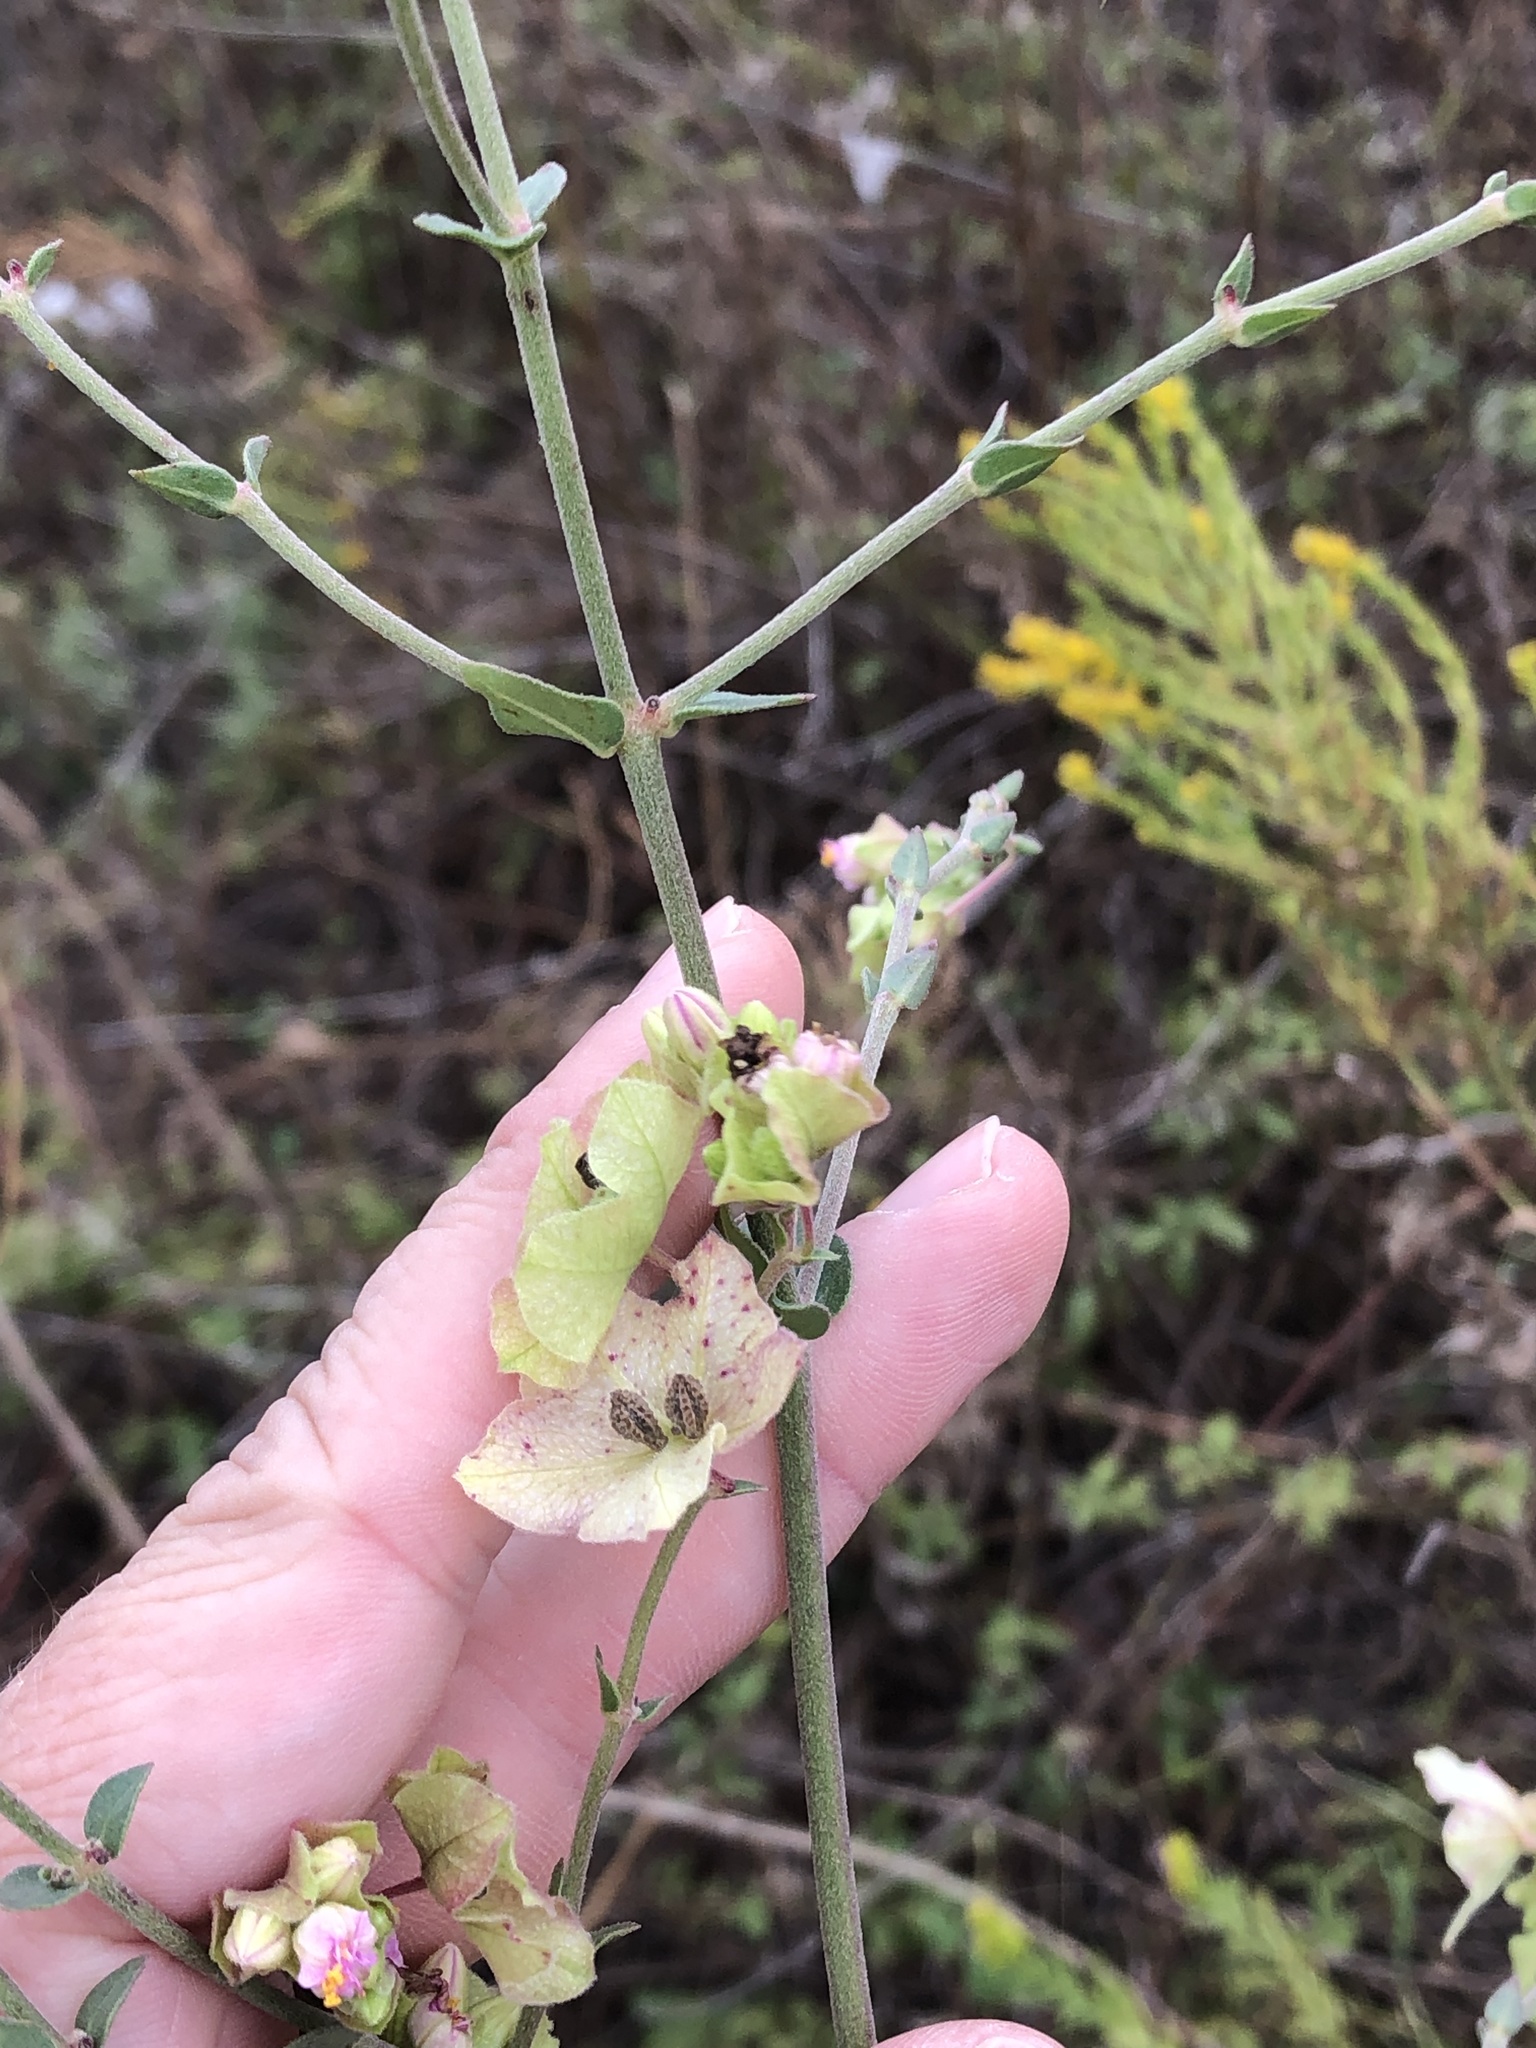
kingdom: Plantae
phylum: Tracheophyta
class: Magnoliopsida
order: Caryophyllales
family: Nyctaginaceae
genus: Mirabilis
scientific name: Mirabilis albida
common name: Hairy four-o'clock
